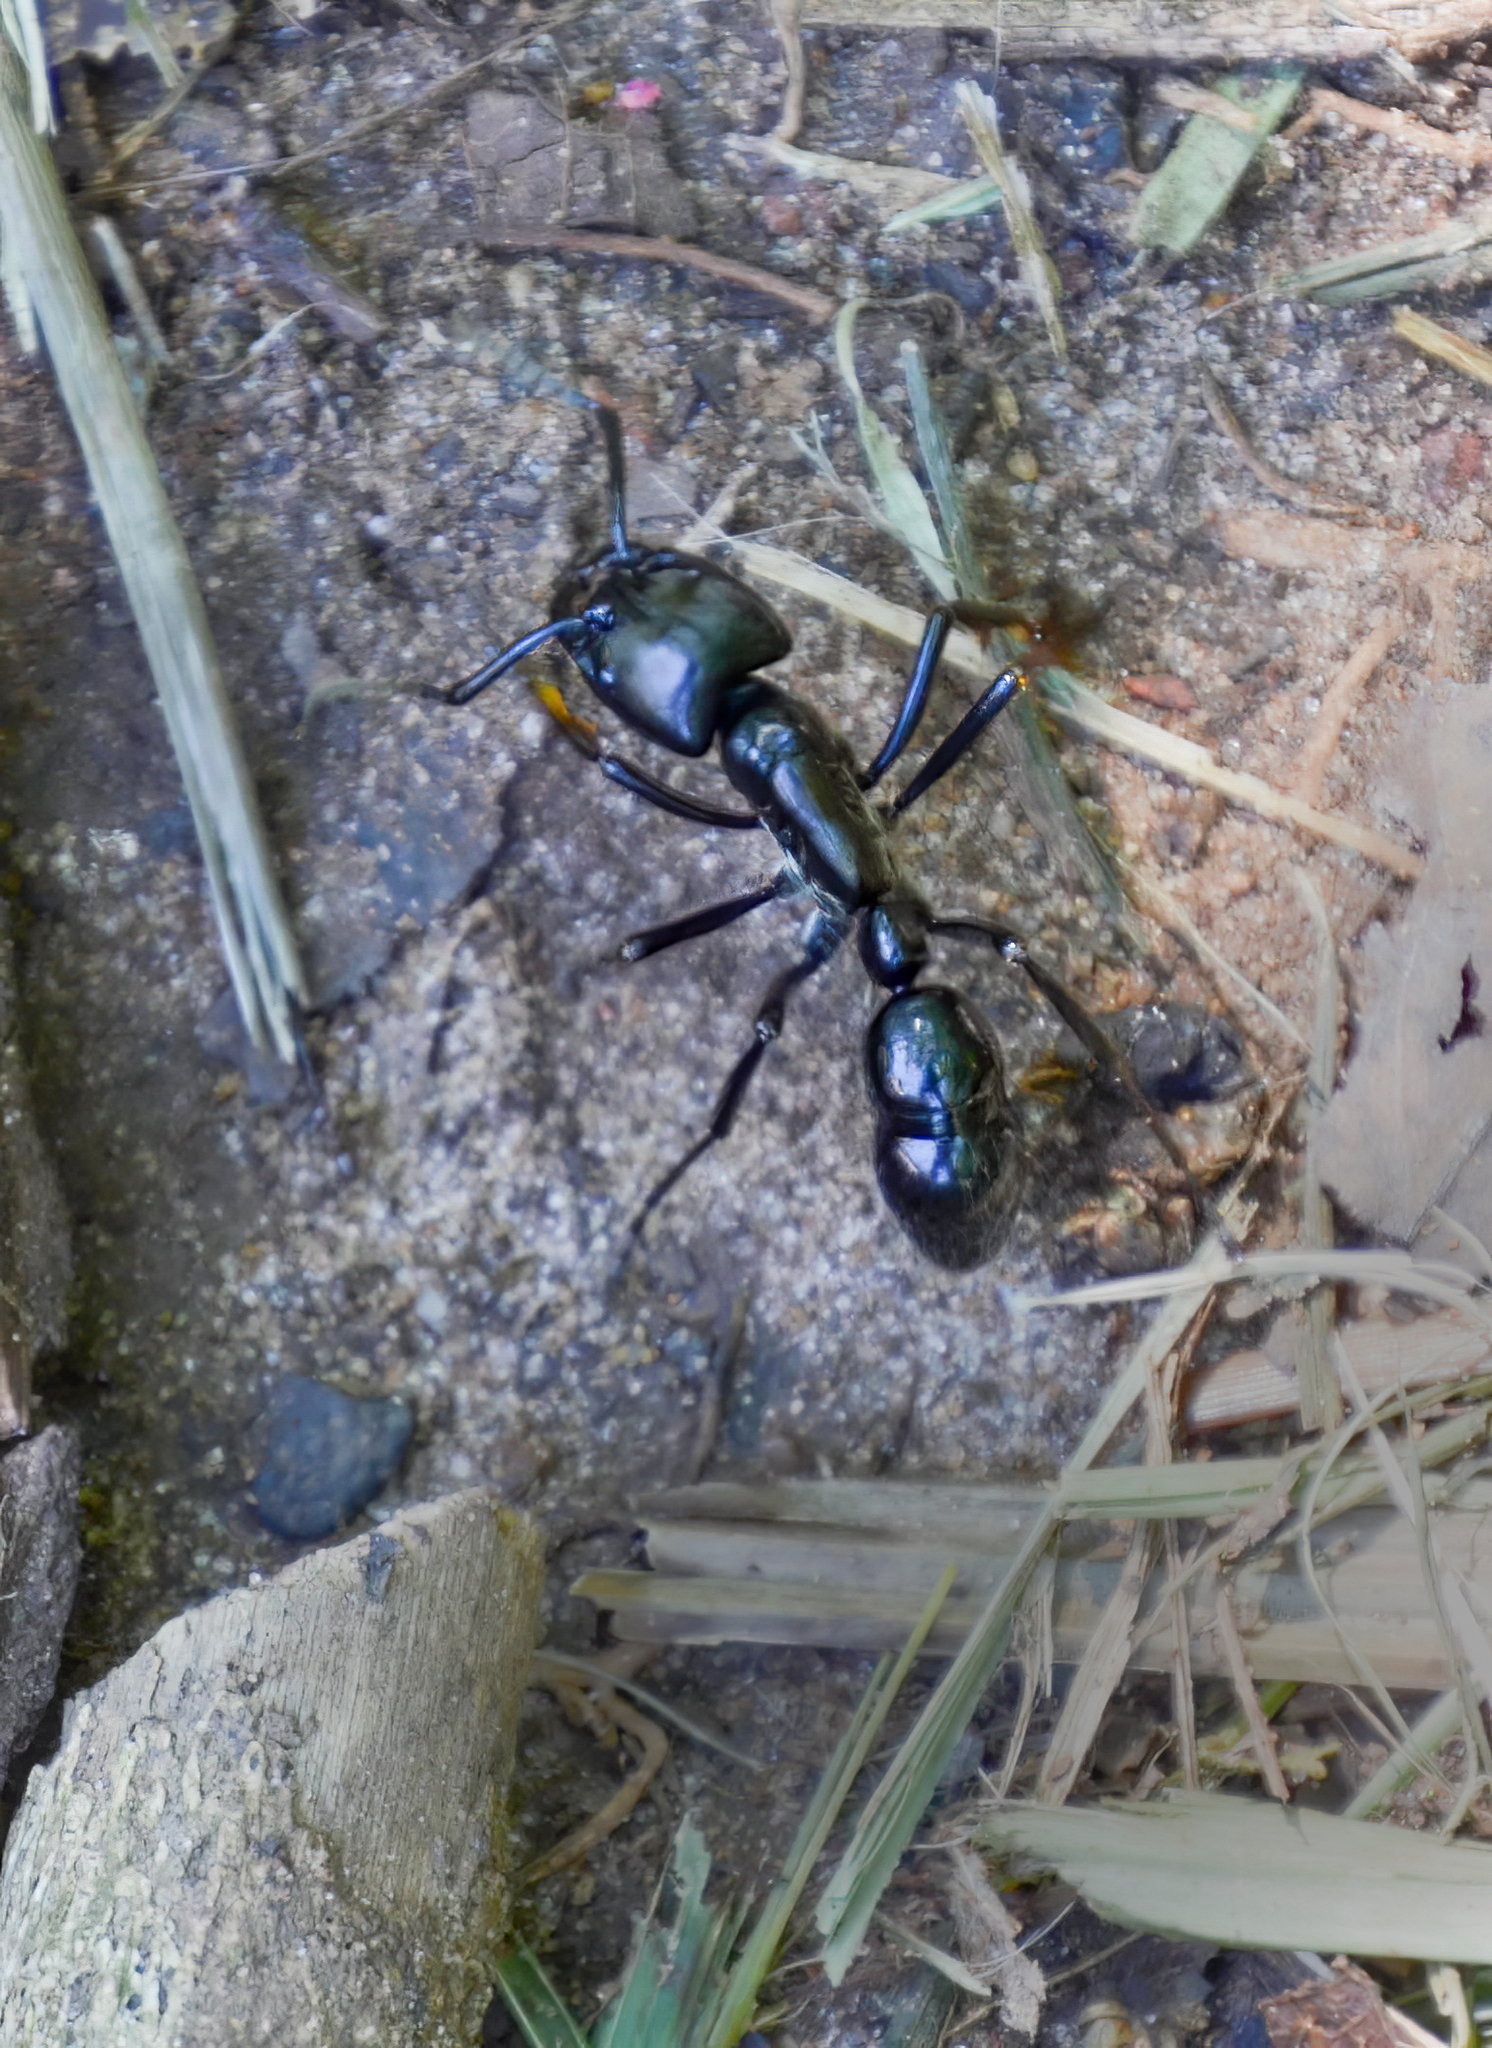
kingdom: Animalia
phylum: Arthropoda
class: Insecta
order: Hymenoptera
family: Formicidae
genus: Dinoponera
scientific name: Dinoponera
